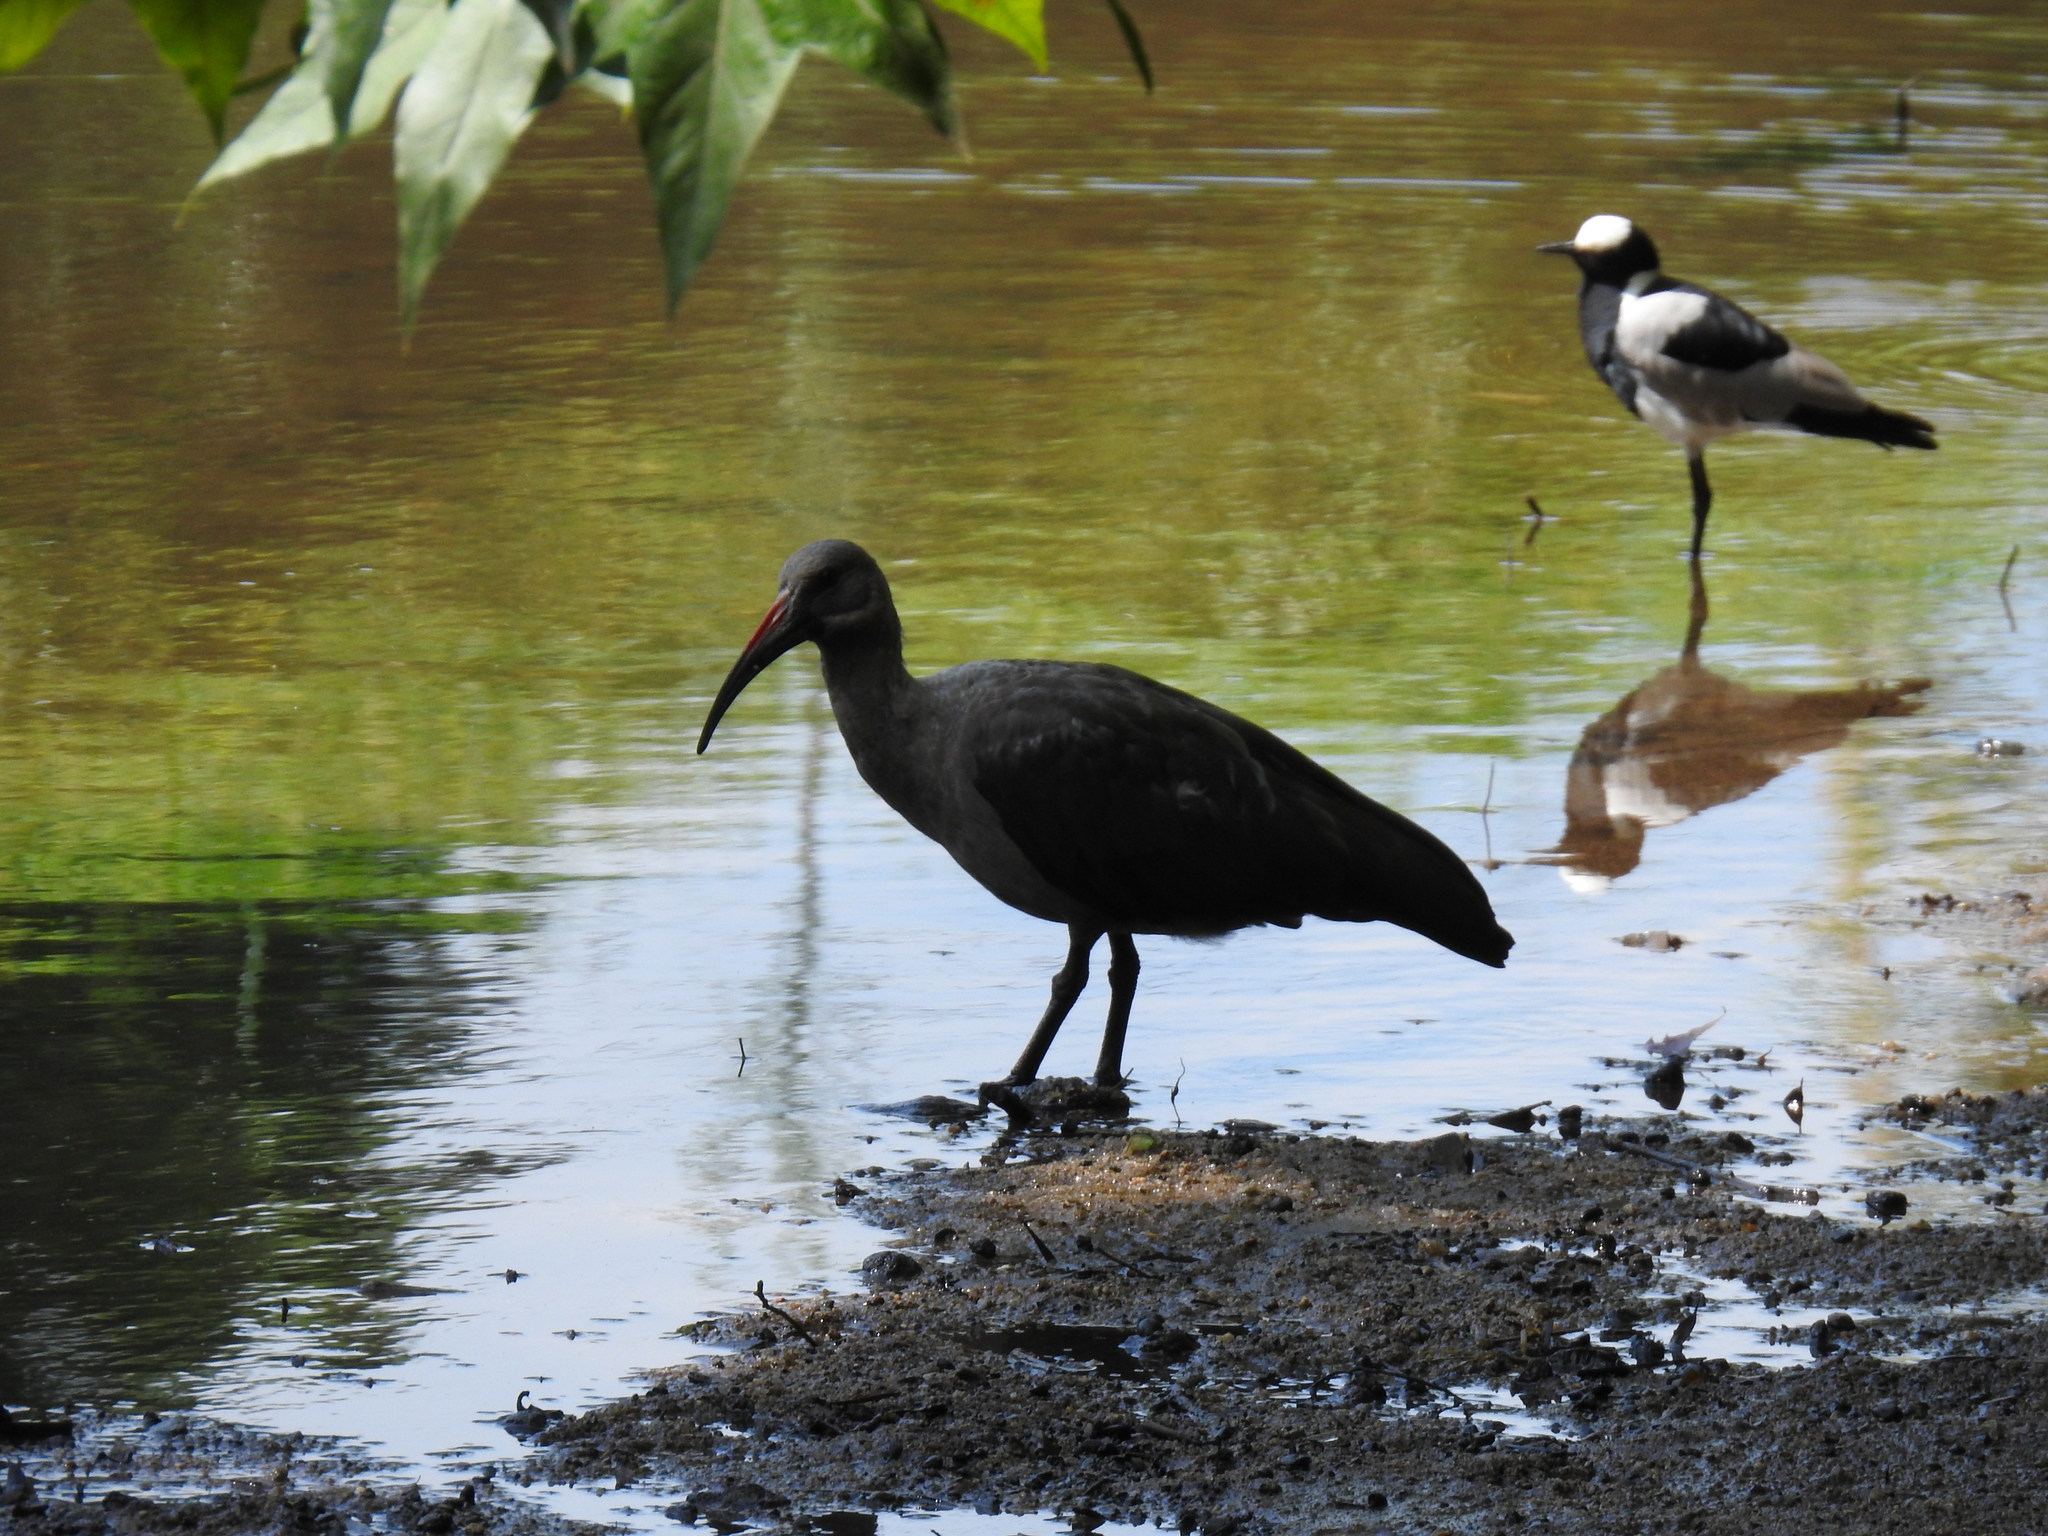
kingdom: Animalia
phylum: Chordata
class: Aves
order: Pelecaniformes
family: Threskiornithidae
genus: Bostrychia
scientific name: Bostrychia hagedash
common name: Hadada ibis
